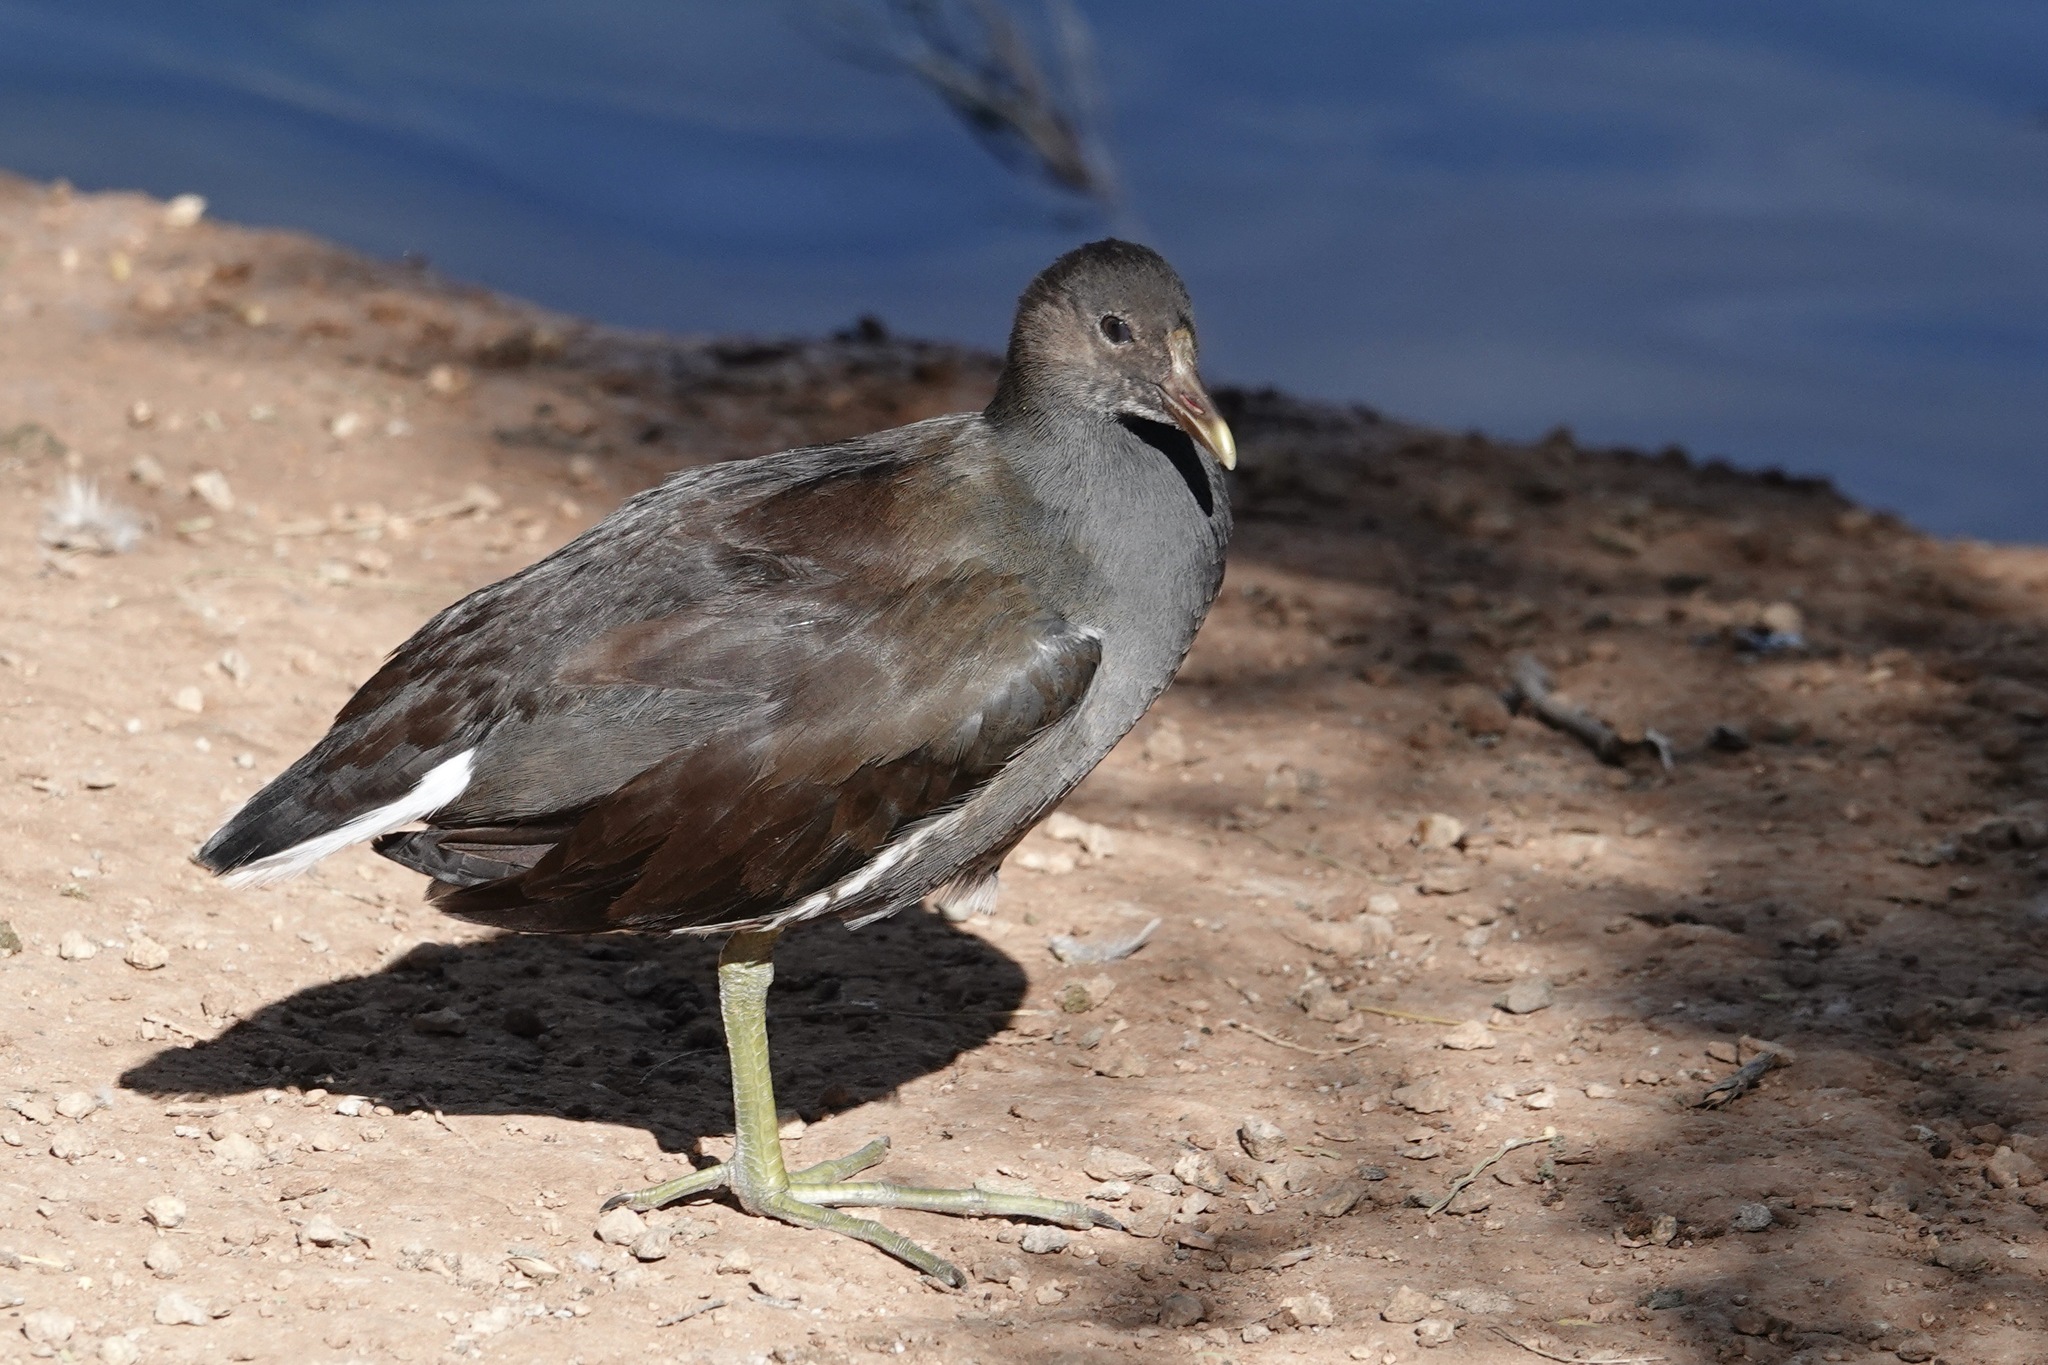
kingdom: Animalia
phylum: Chordata
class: Aves
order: Gruiformes
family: Rallidae
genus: Gallinula
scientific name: Gallinula chloropus
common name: Common moorhen
